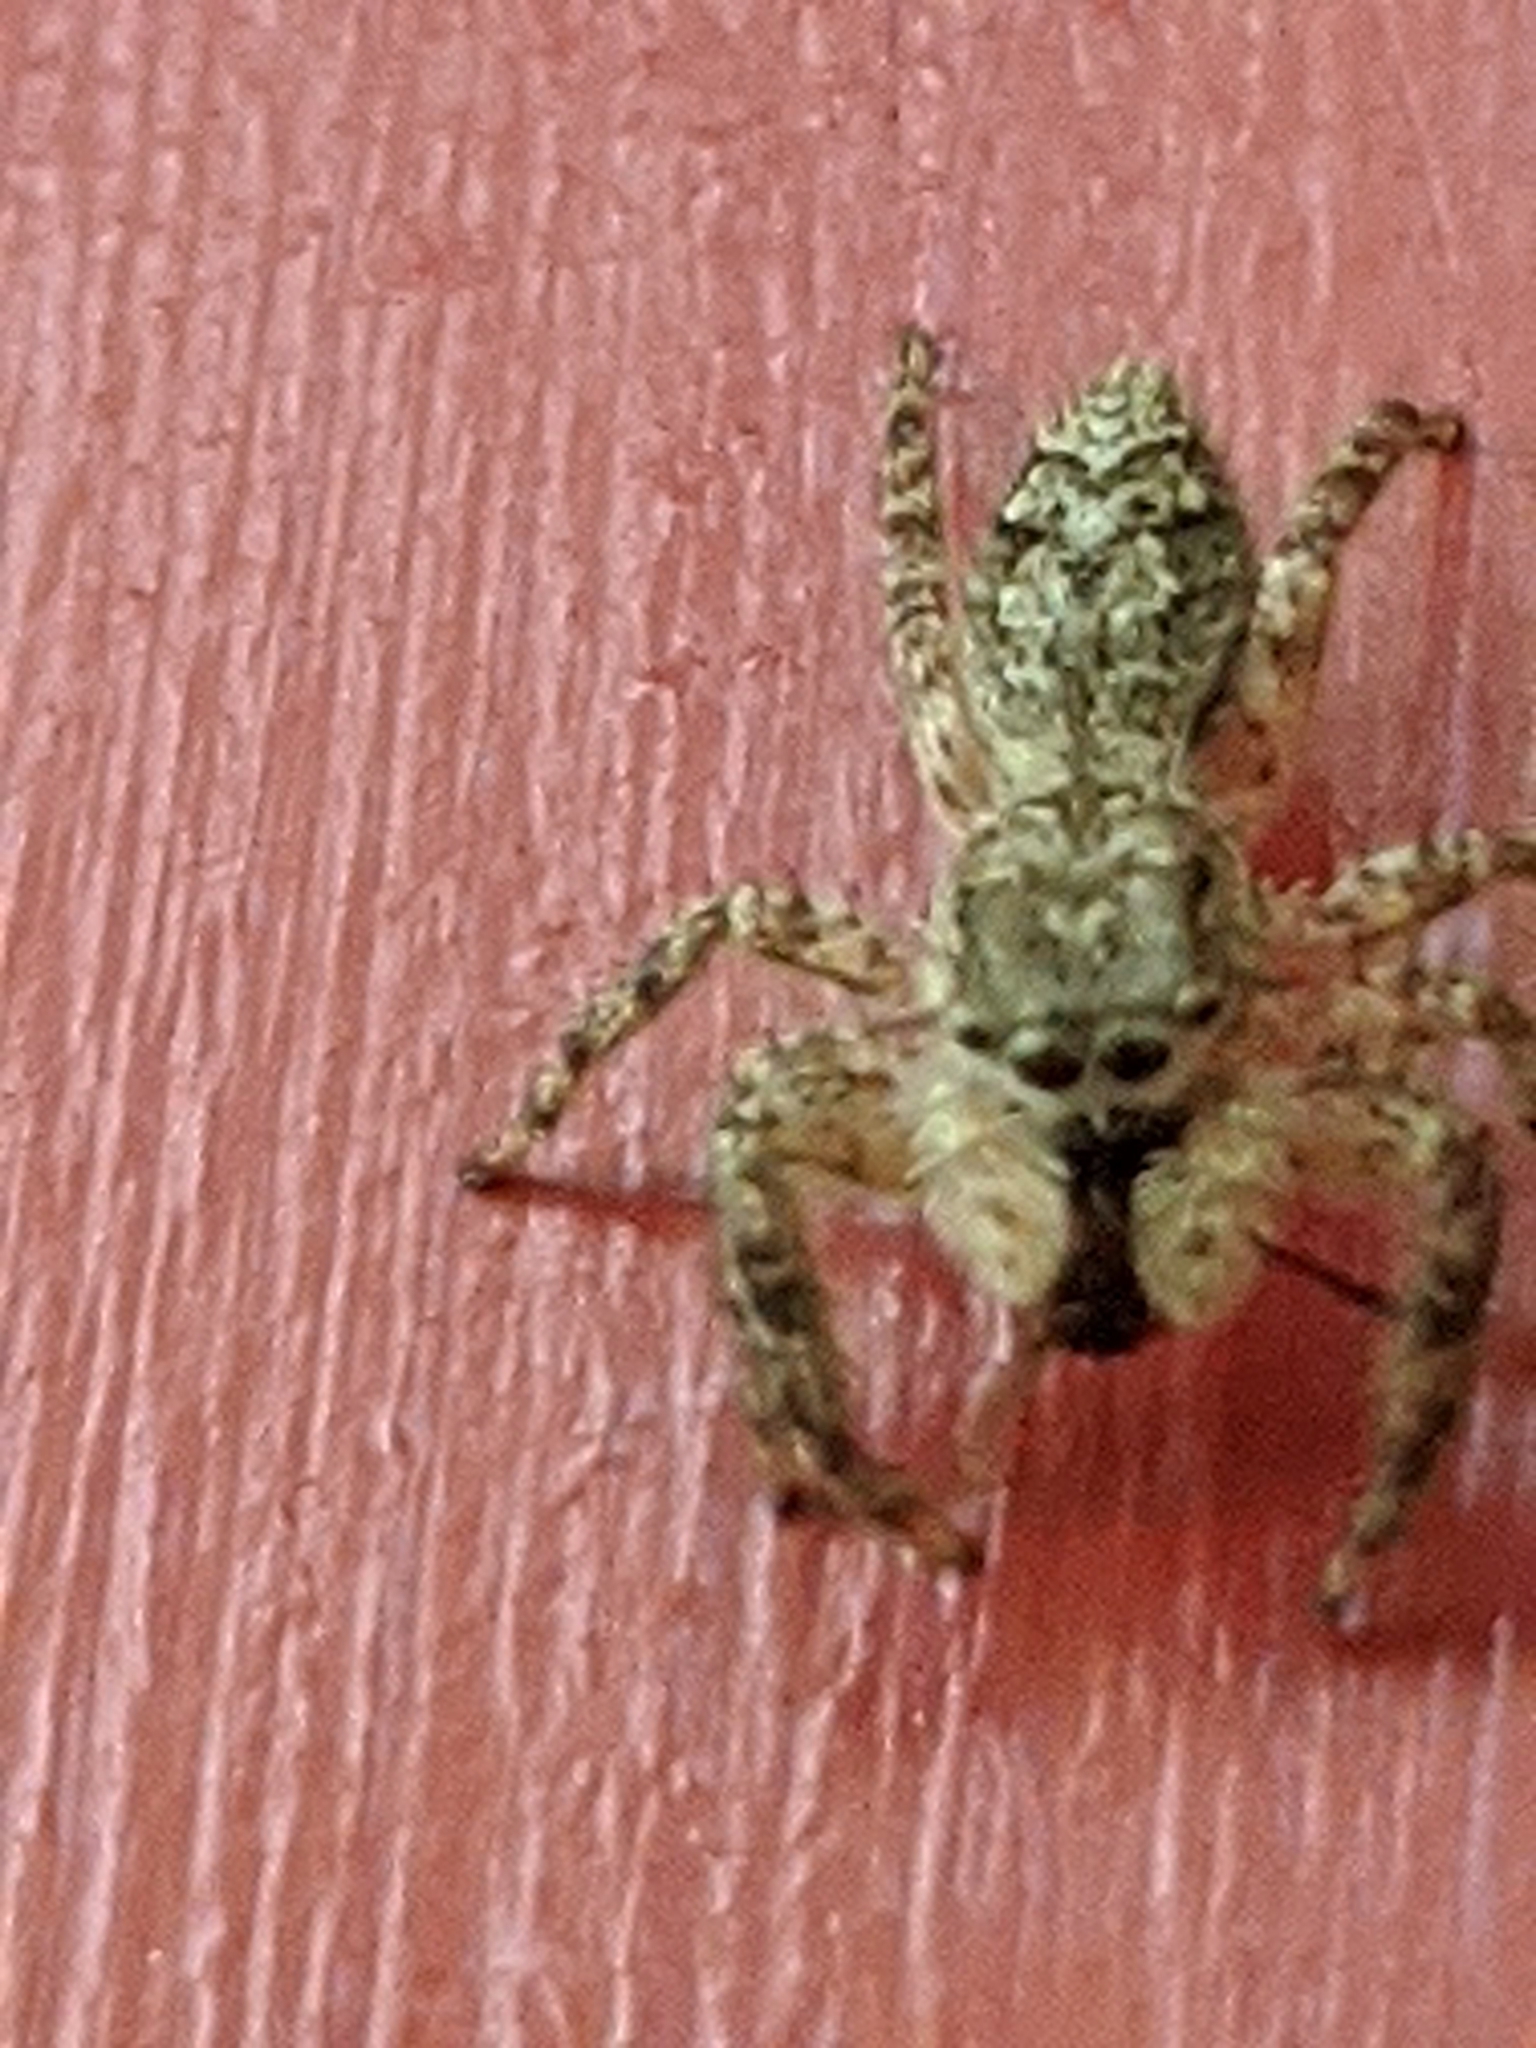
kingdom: Animalia
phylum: Arthropoda
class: Arachnida
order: Araneae
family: Salticidae
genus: Platycryptus
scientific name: Platycryptus undatus
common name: Tan jumping spider
